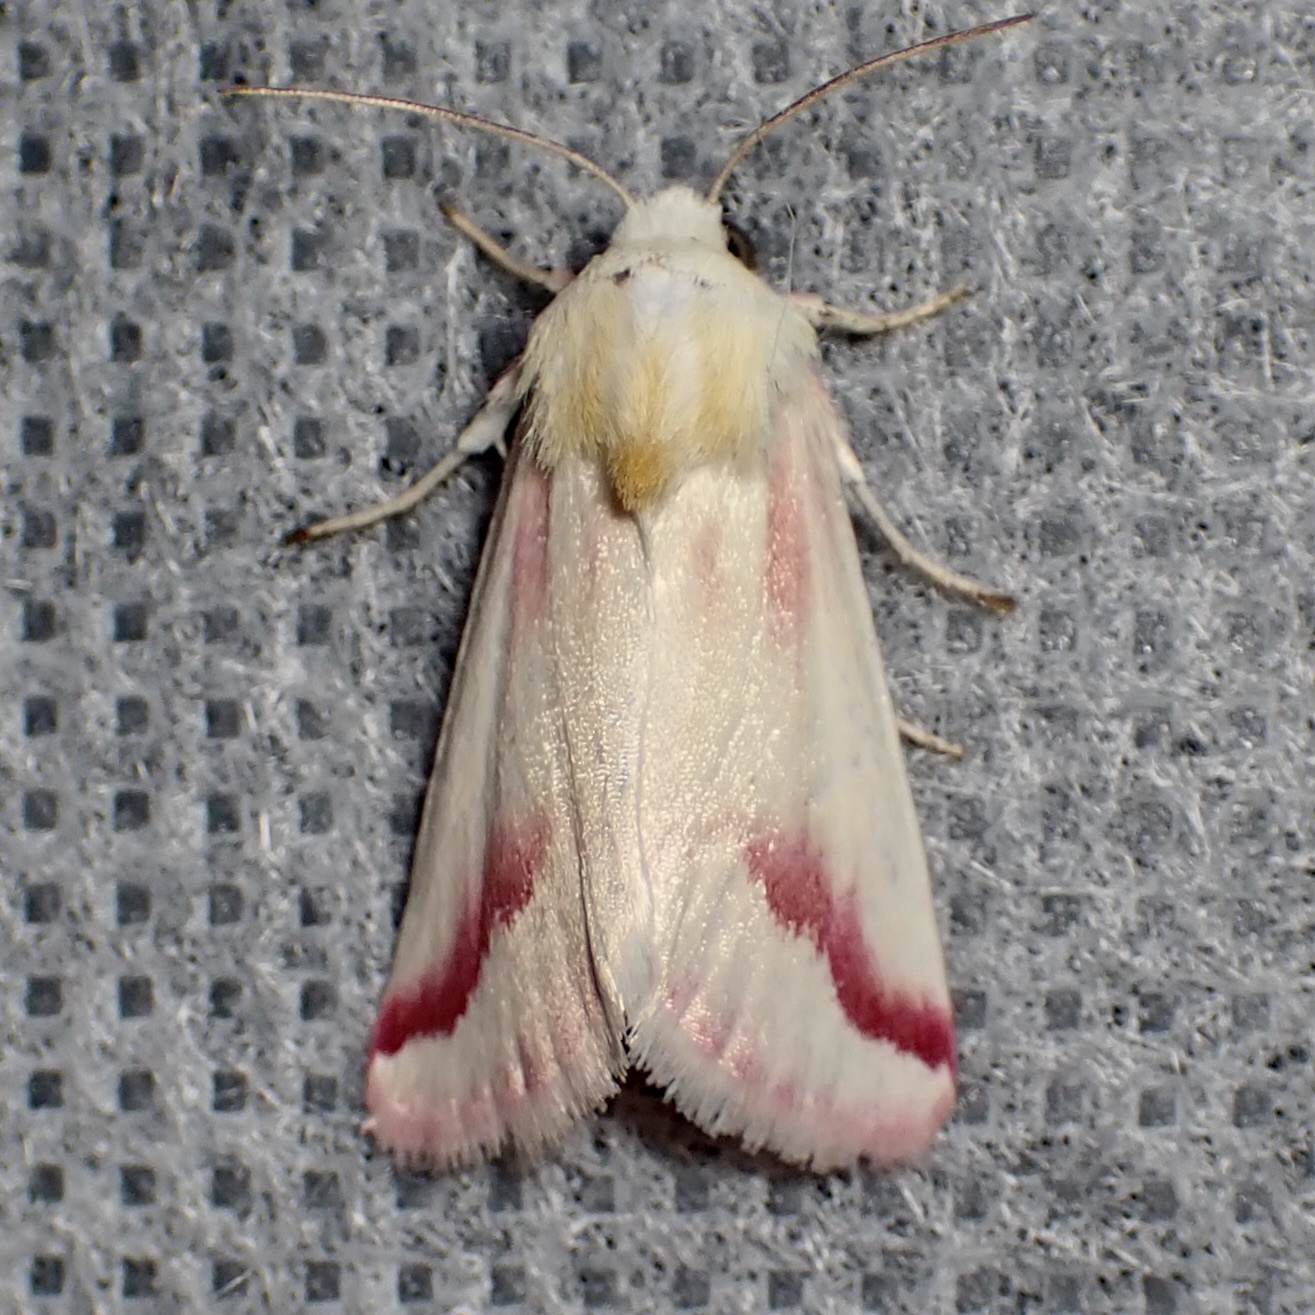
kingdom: Animalia
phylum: Arthropoda
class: Insecta
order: Lepidoptera
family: Noctuidae
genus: Schinia
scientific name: Schinia gaurae
